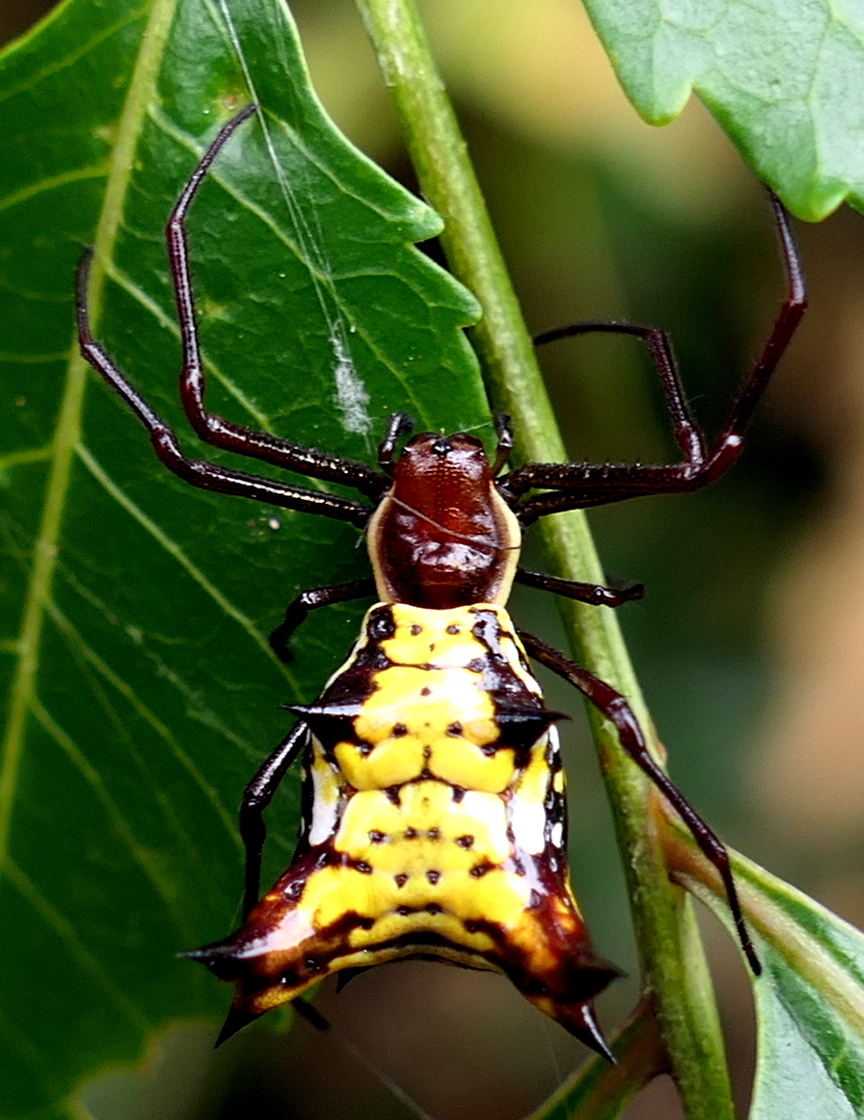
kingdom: Animalia
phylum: Arthropoda
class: Arachnida
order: Araneae
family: Araneidae
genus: Micrathena
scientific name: Micrathena fissispina
